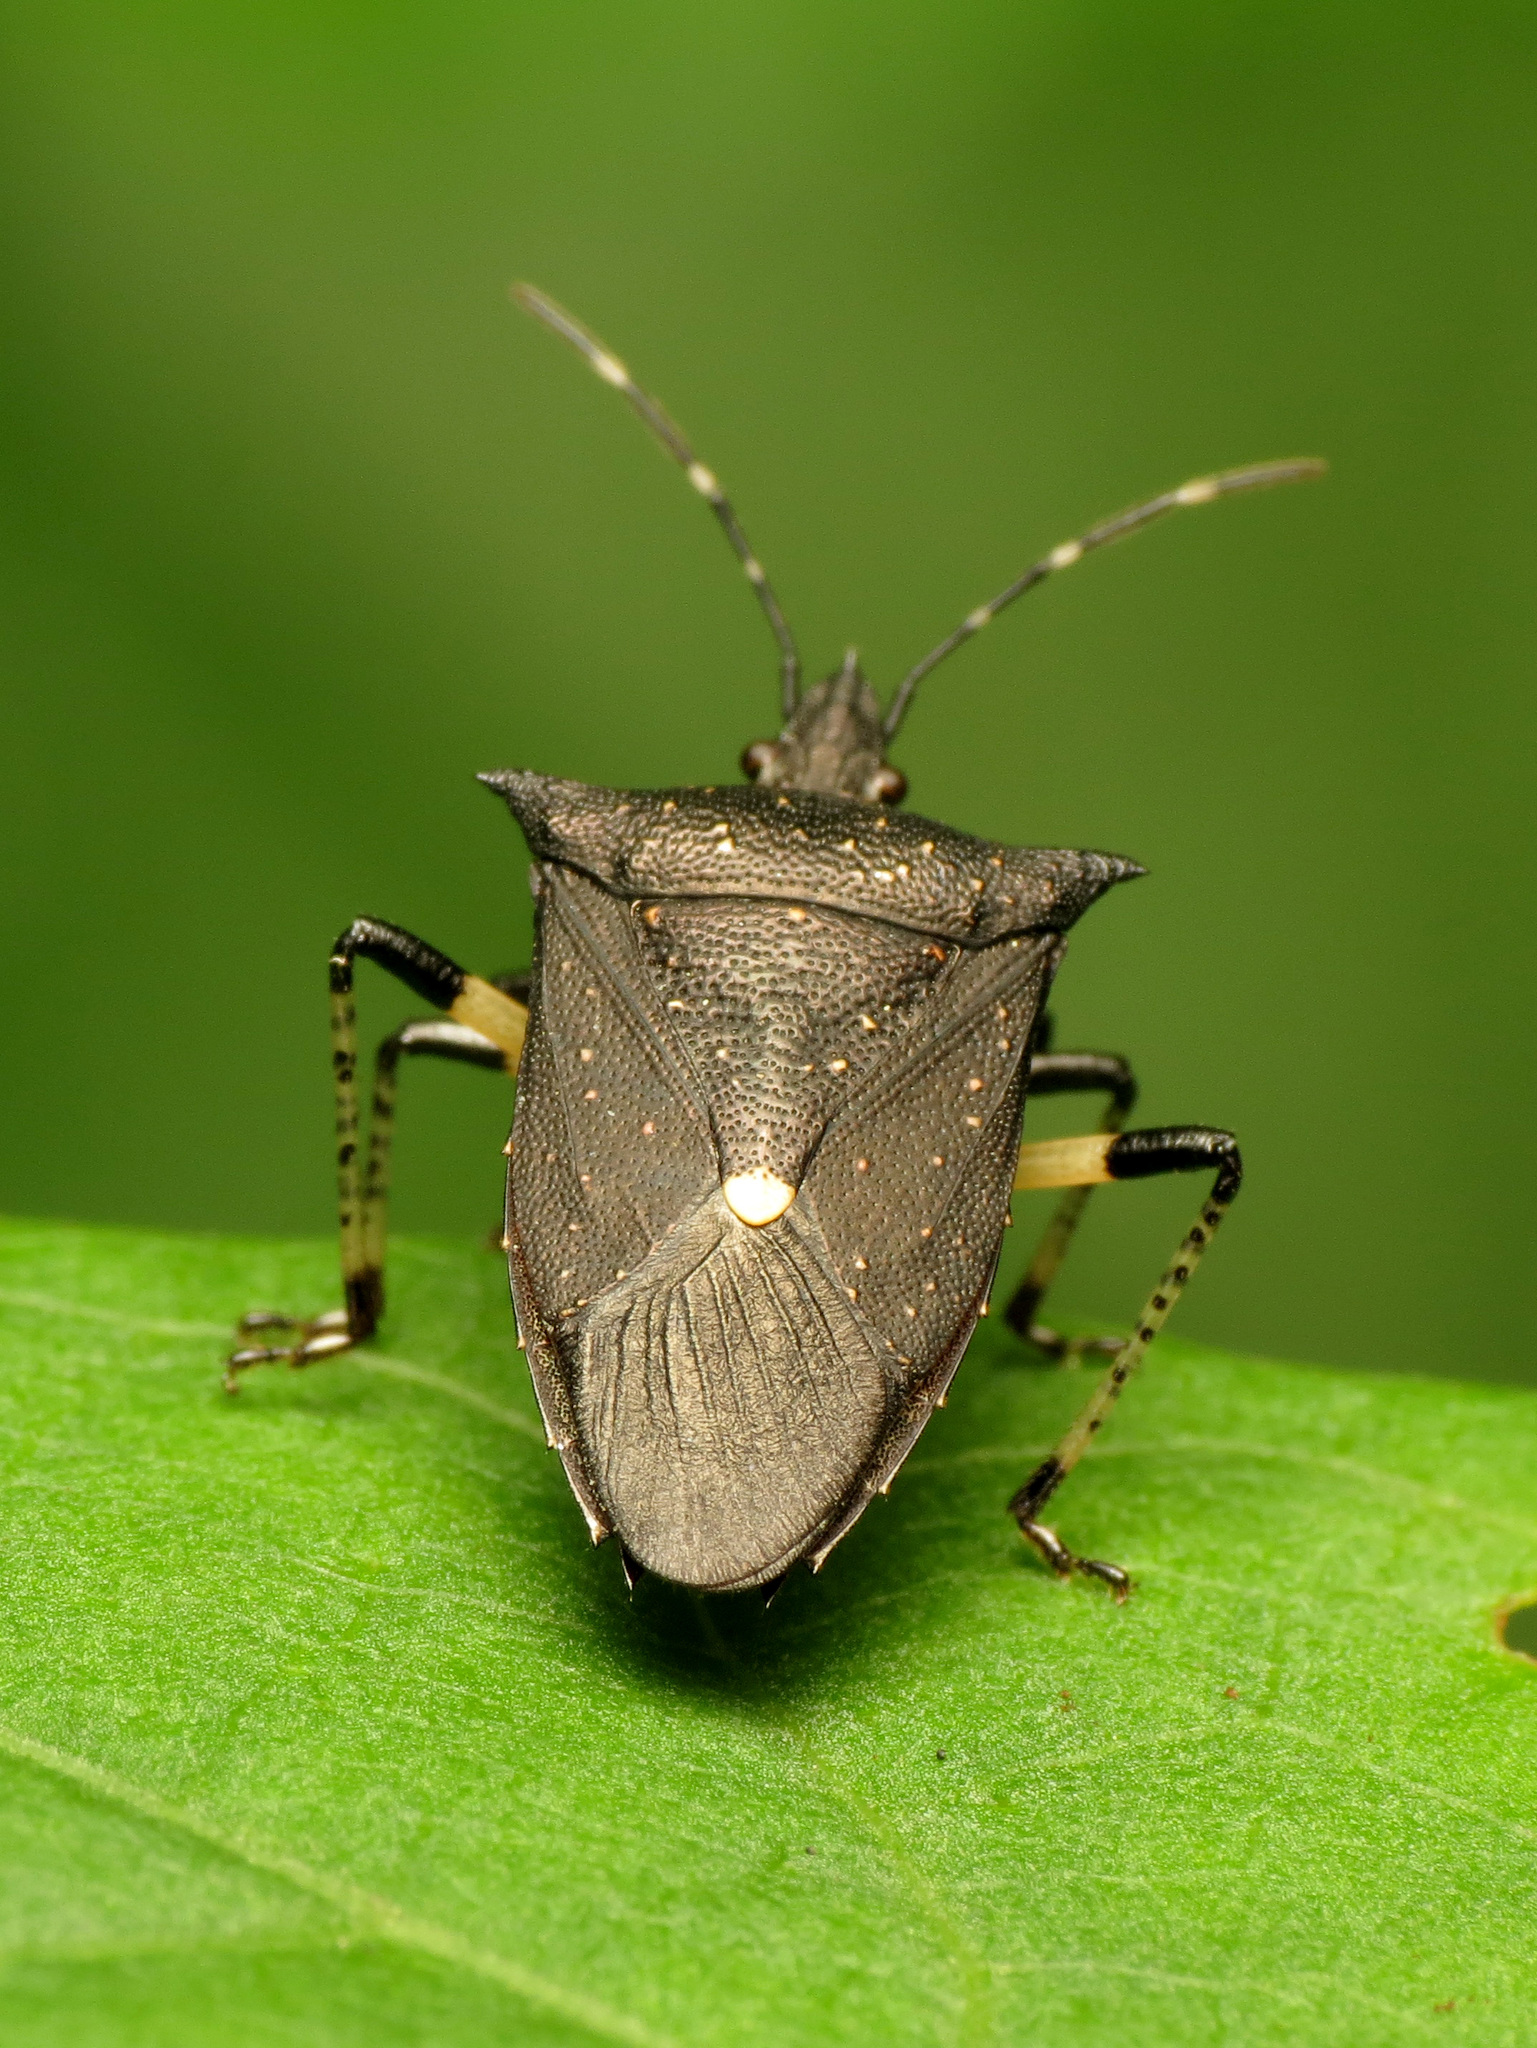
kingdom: Animalia
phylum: Arthropoda
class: Insecta
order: Hemiptera
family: Pentatomidae
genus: Proxys
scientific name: Proxys punctulatus
